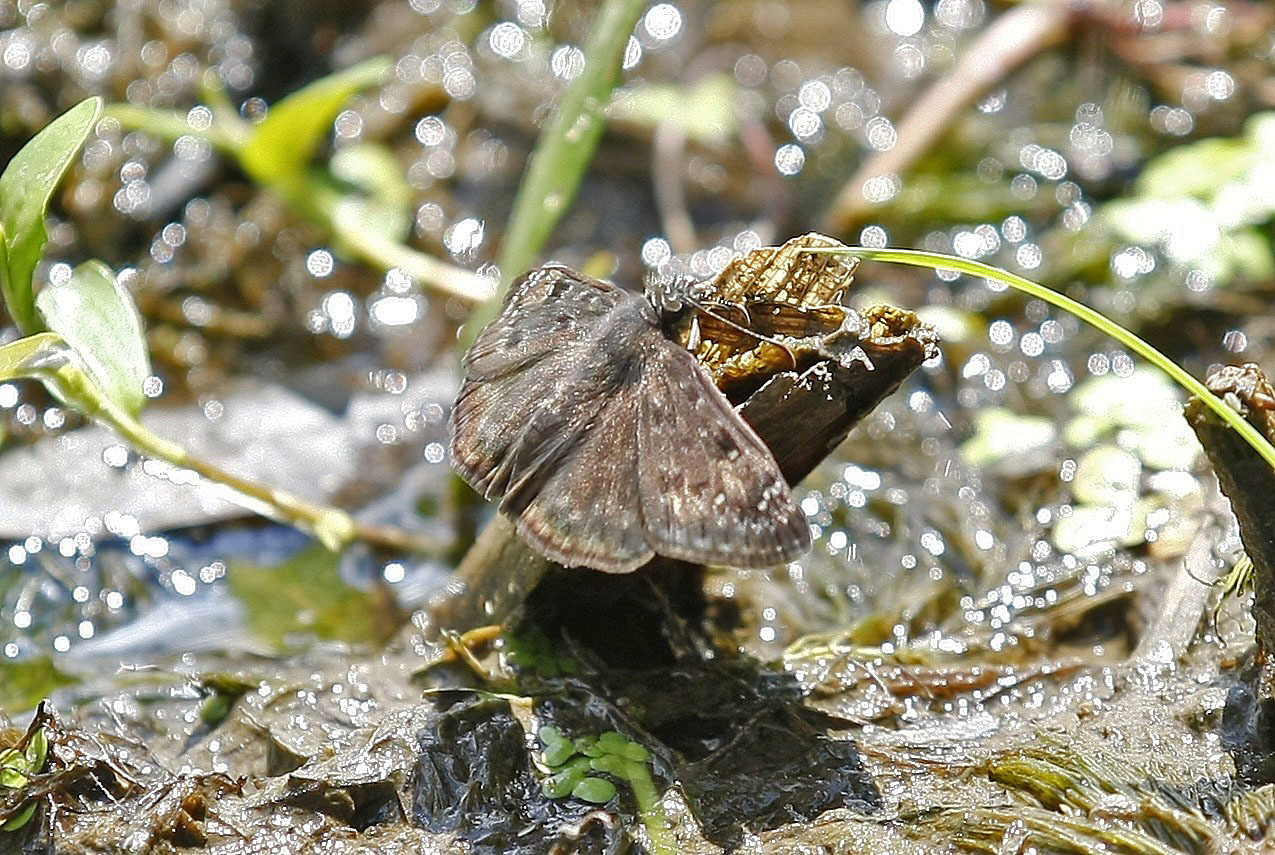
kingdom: Animalia
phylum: Arthropoda
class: Insecta
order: Lepidoptera
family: Hesperiidae
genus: Erynnis
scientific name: Erynnis horatius
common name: Horace's duskywing
